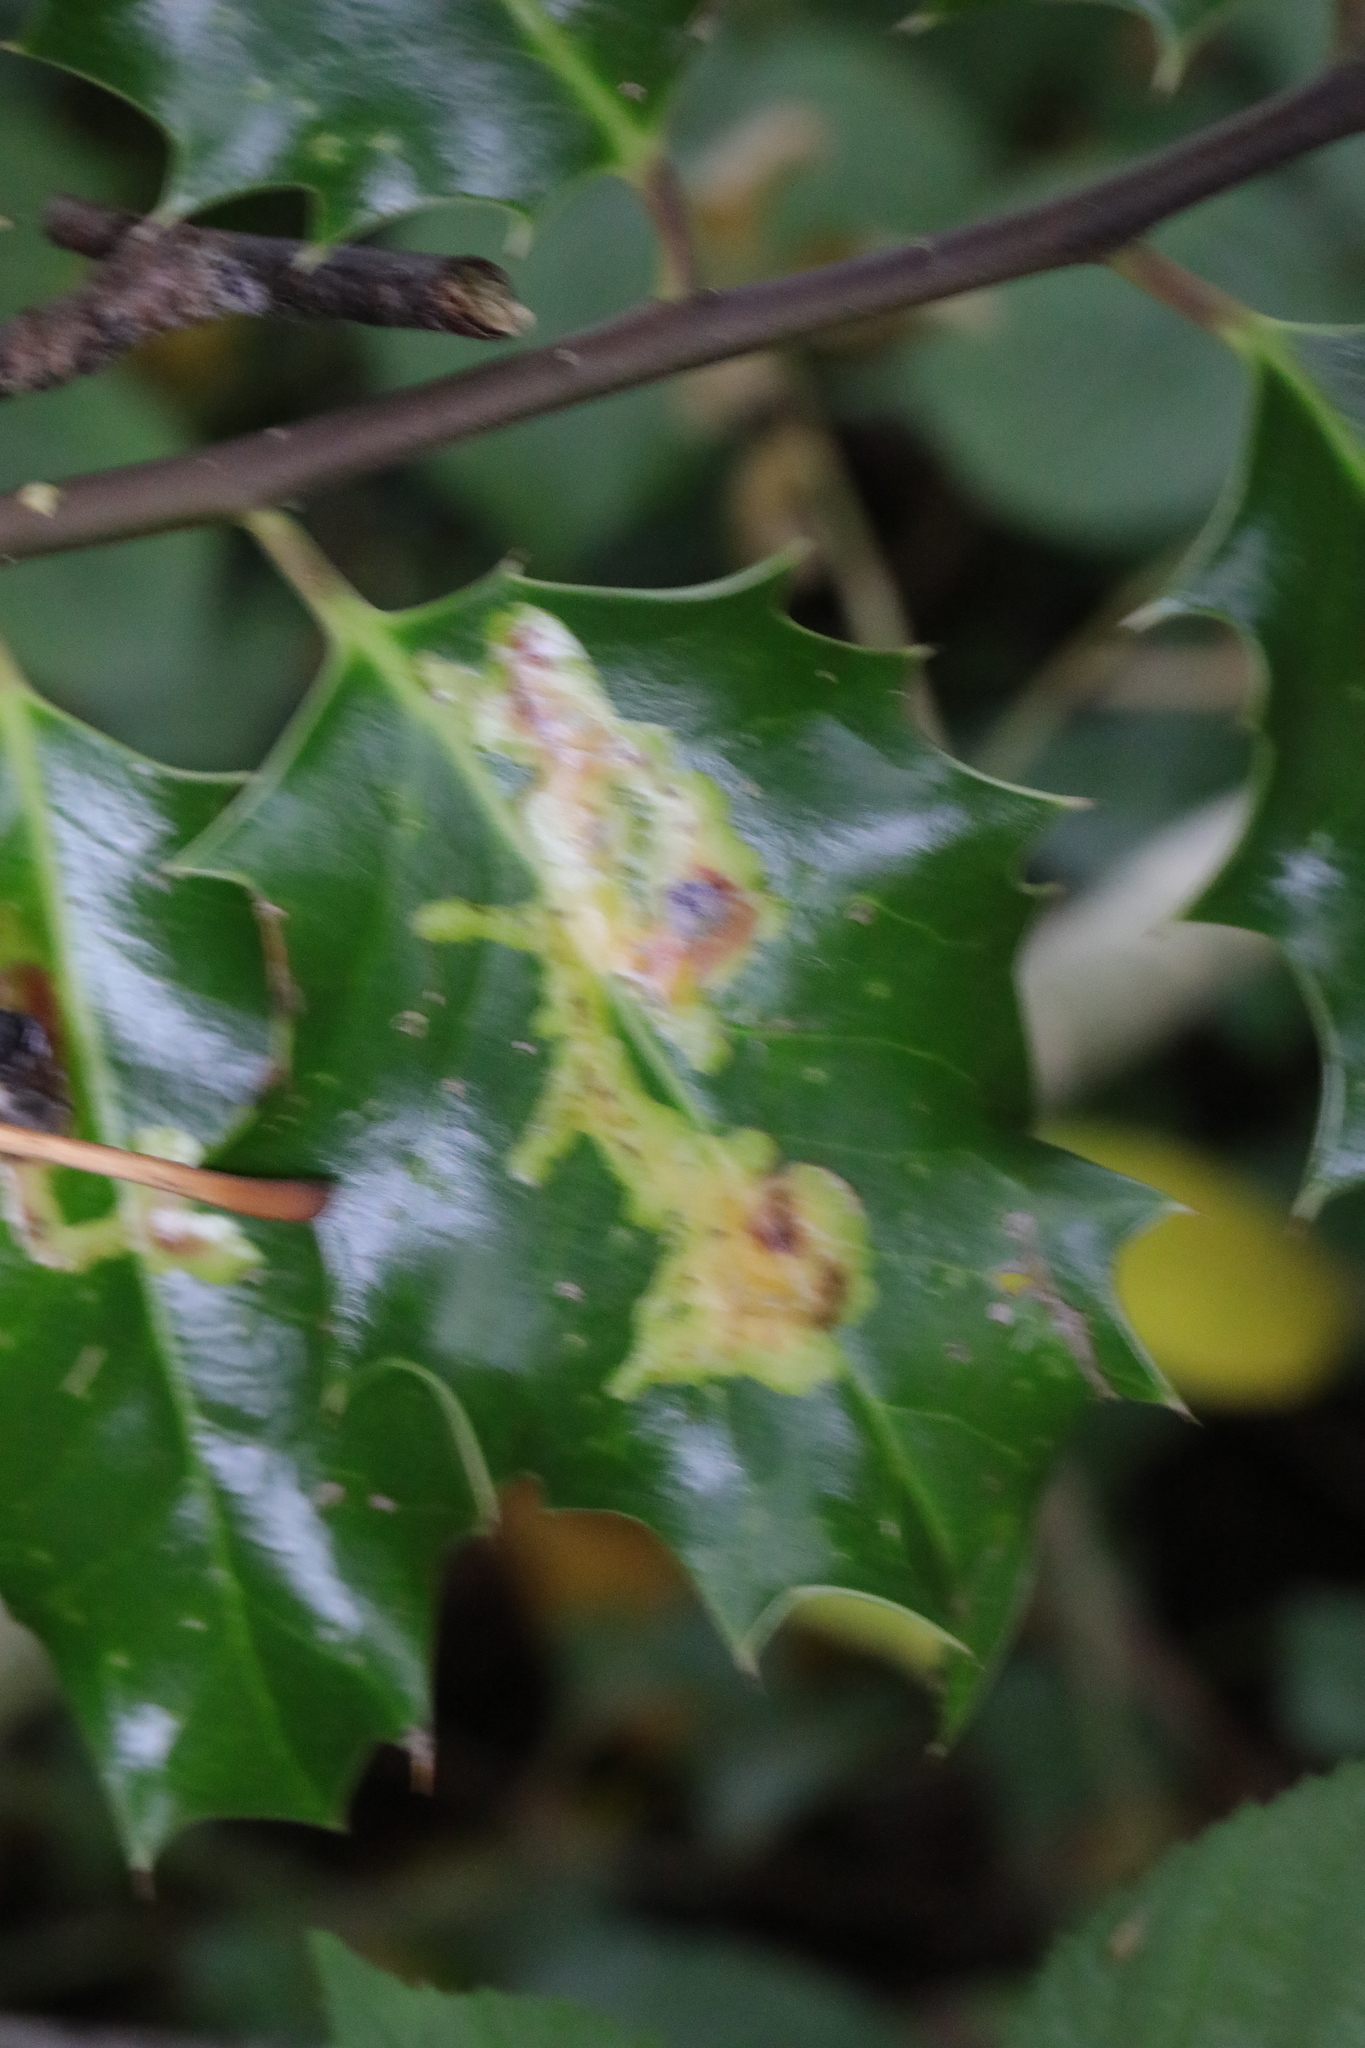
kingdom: Animalia
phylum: Arthropoda
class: Insecta
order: Diptera
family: Agromyzidae
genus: Phytomyza
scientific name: Phytomyza ilicis
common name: Holly leafminer
